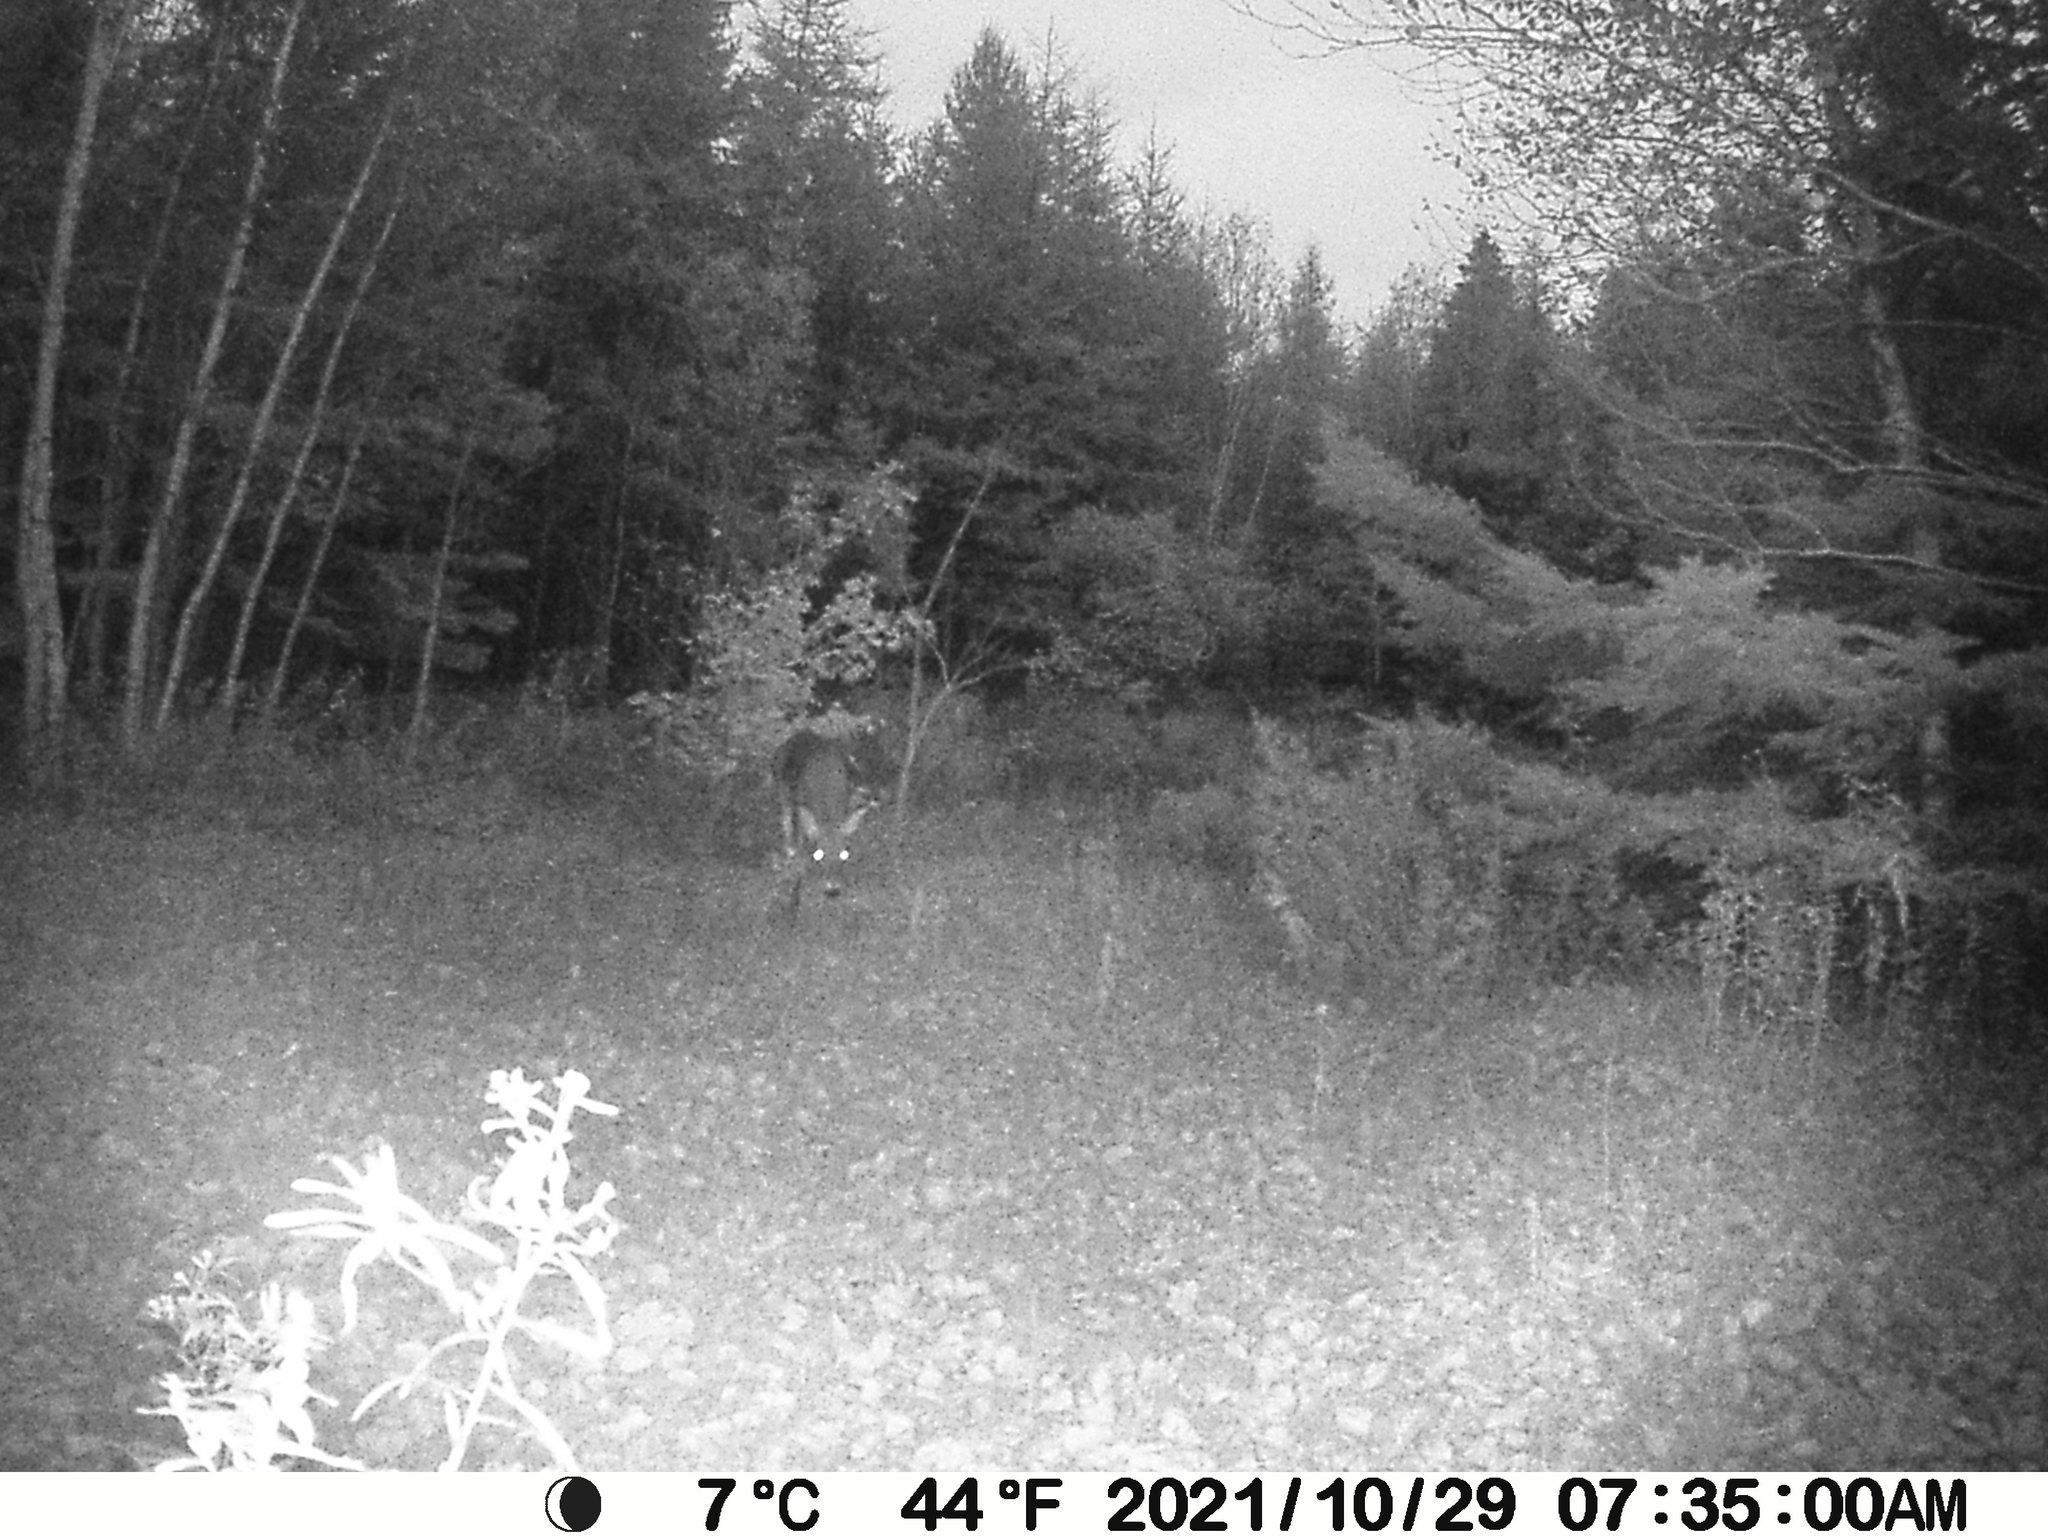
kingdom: Animalia
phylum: Chordata
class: Mammalia
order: Artiodactyla
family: Cervidae
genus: Odocoileus
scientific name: Odocoileus virginianus
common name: White-tailed deer
